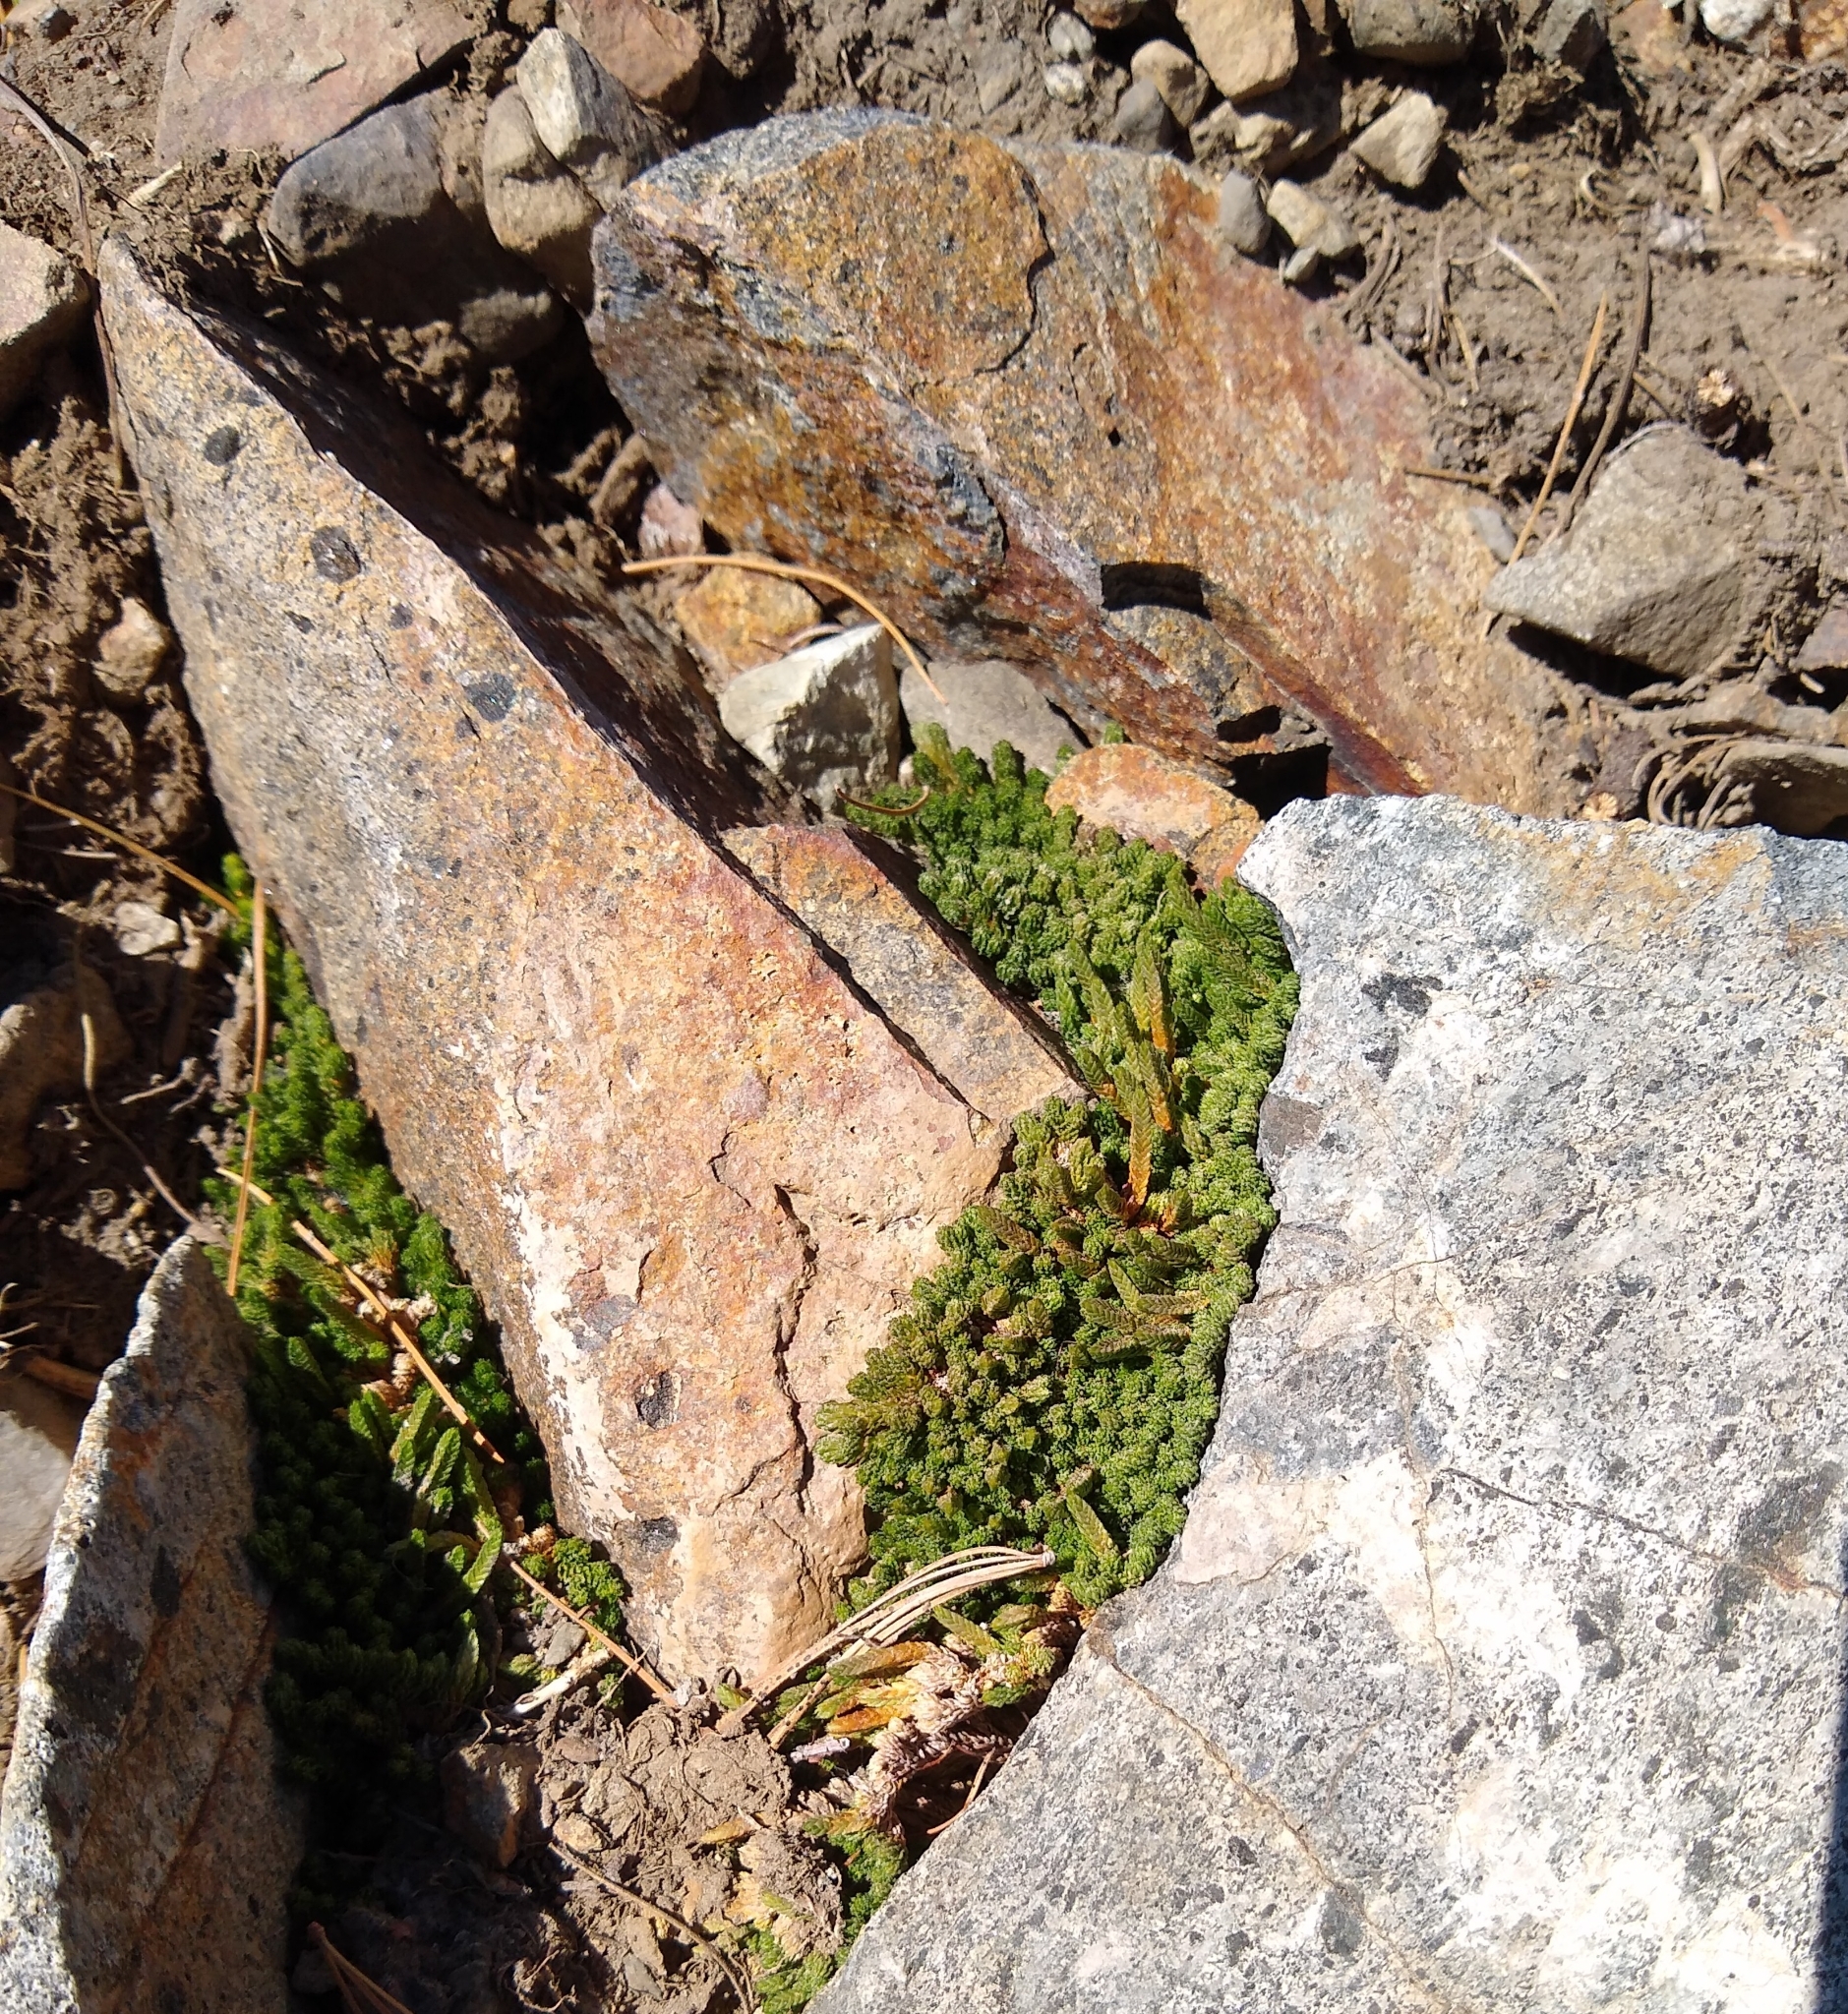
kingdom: Plantae
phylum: Tracheophyta
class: Lycopodiopsida
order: Selaginellales
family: Selaginellaceae
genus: Selaginella
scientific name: Selaginella watsonii
